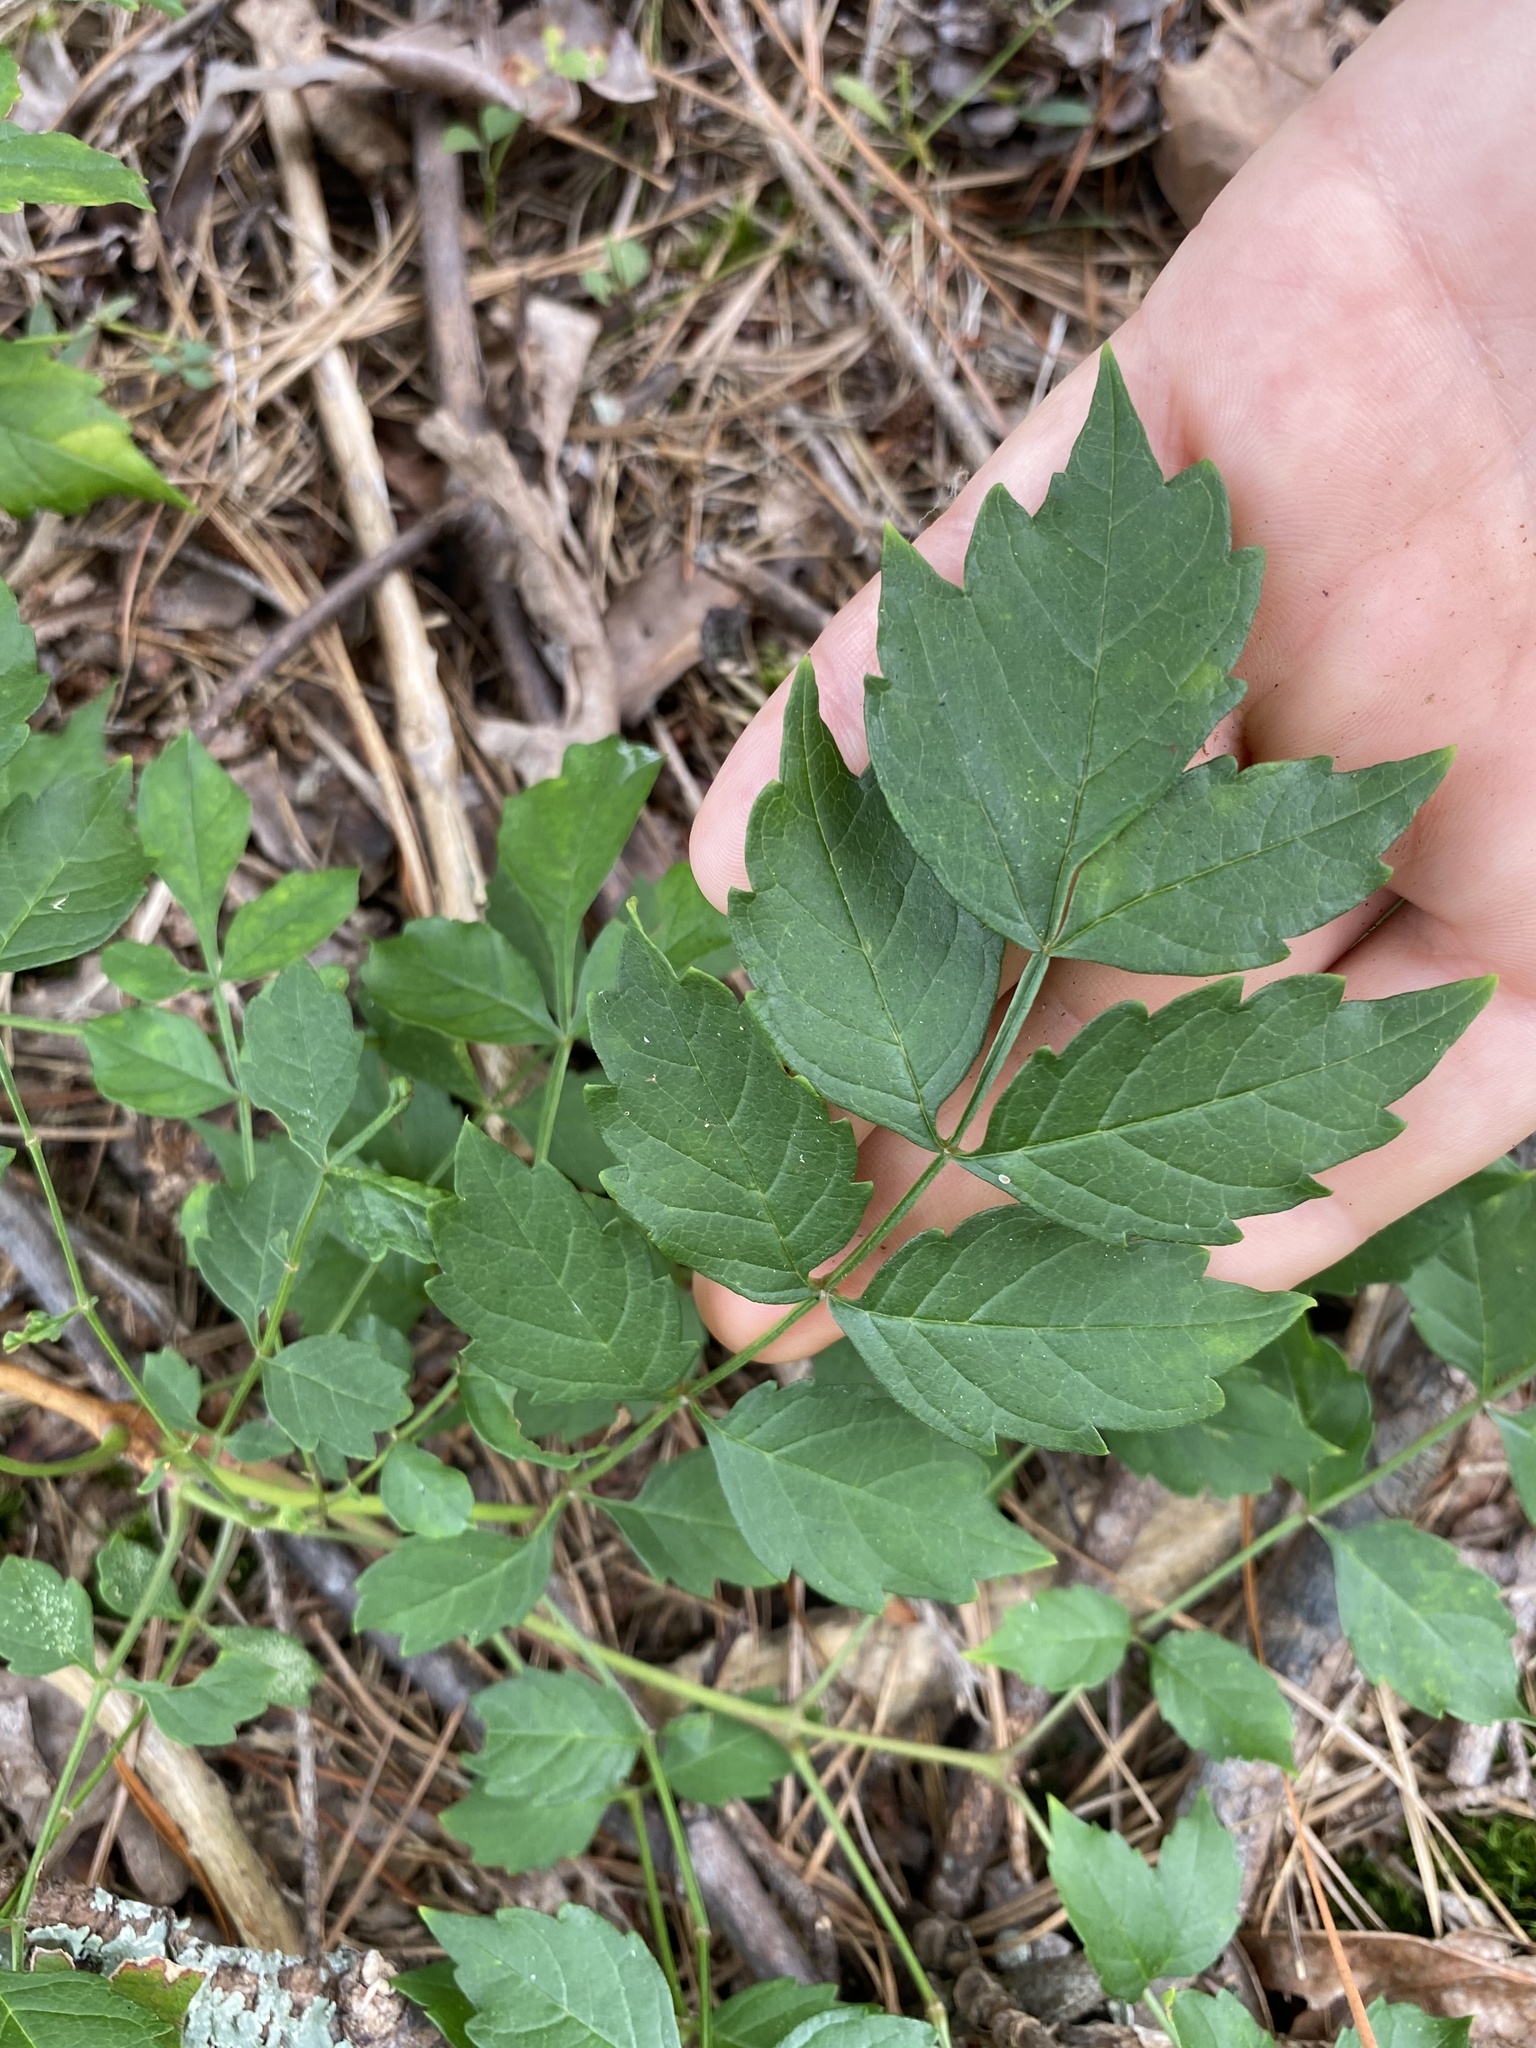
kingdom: Plantae
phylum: Tracheophyta
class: Magnoliopsida
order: Lamiales
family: Bignoniaceae
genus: Campsis
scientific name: Campsis radicans
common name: Trumpet-creeper
